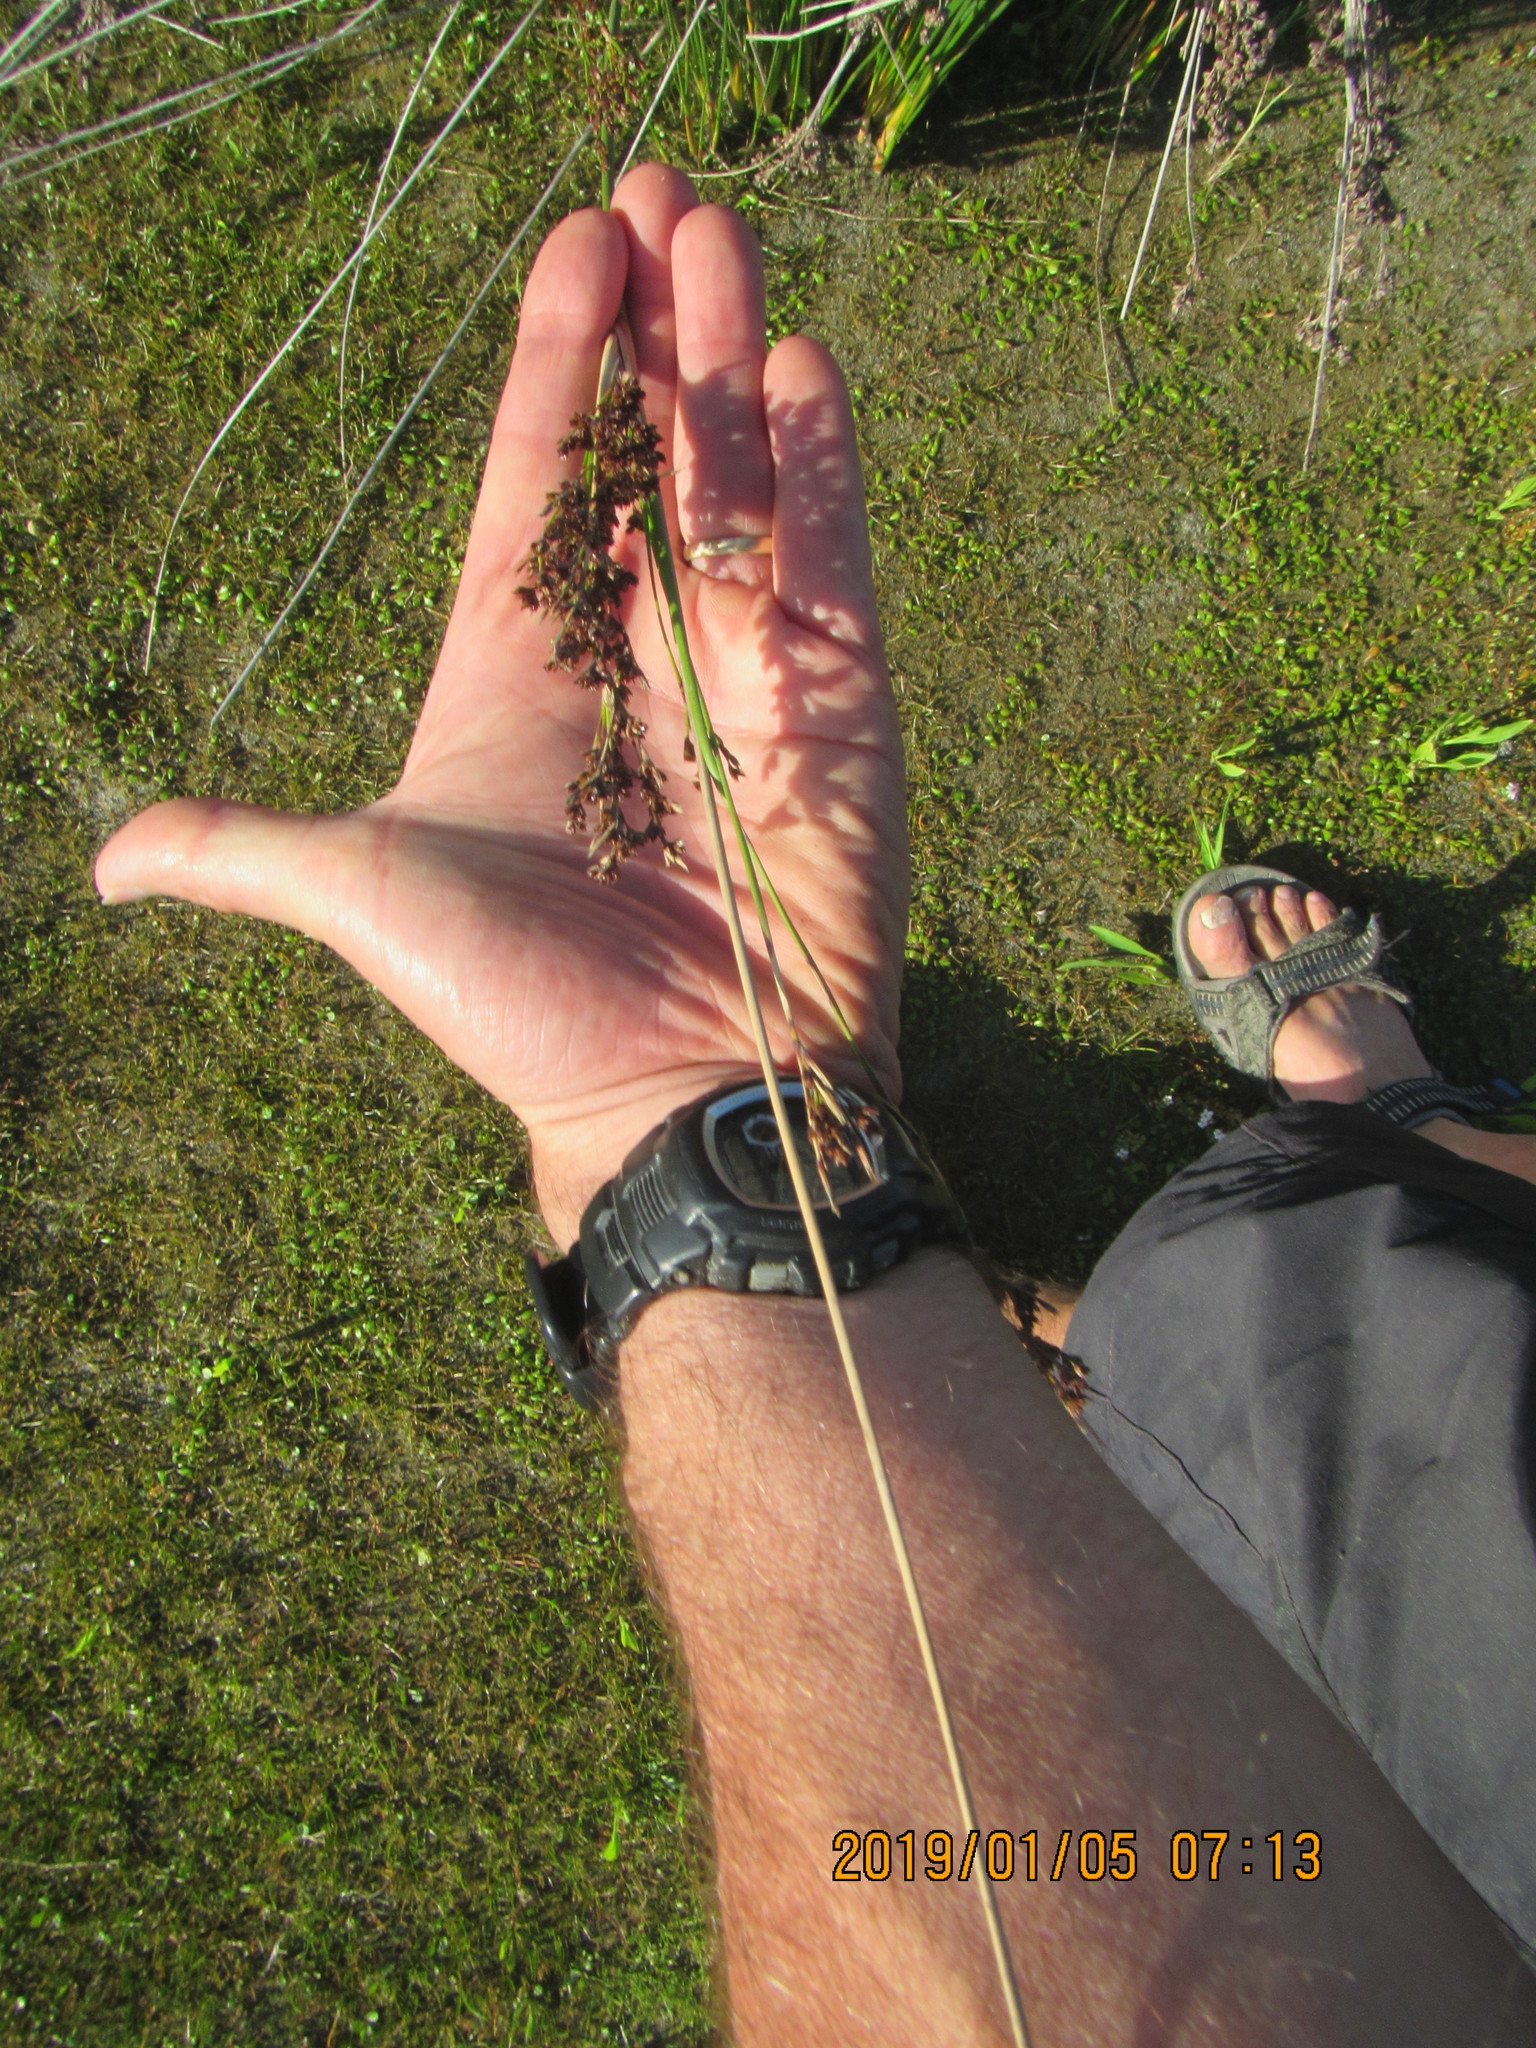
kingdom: Plantae
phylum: Tracheophyta
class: Liliopsida
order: Poales
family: Juncaceae
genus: Juncus
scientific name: Juncus kraussii
